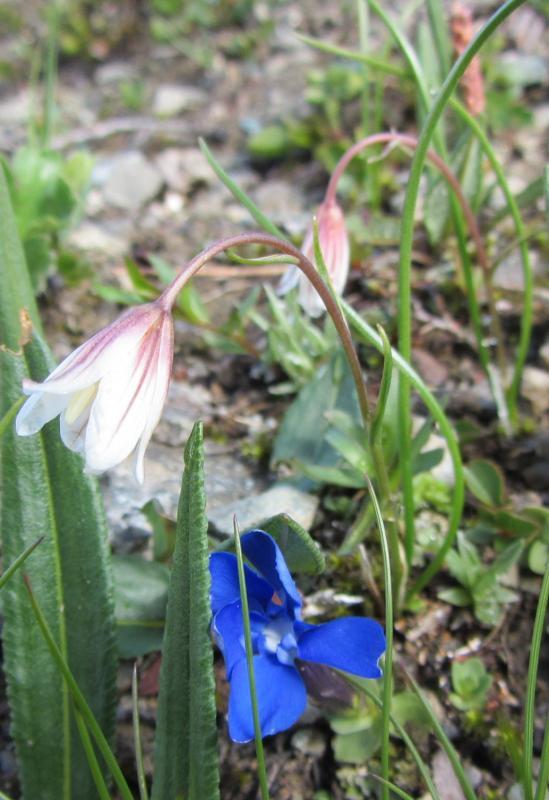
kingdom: Plantae
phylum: Tracheophyta
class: Liliopsida
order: Liliales
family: Liliaceae
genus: Gagea
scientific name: Gagea serotina
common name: Snowdon lily
